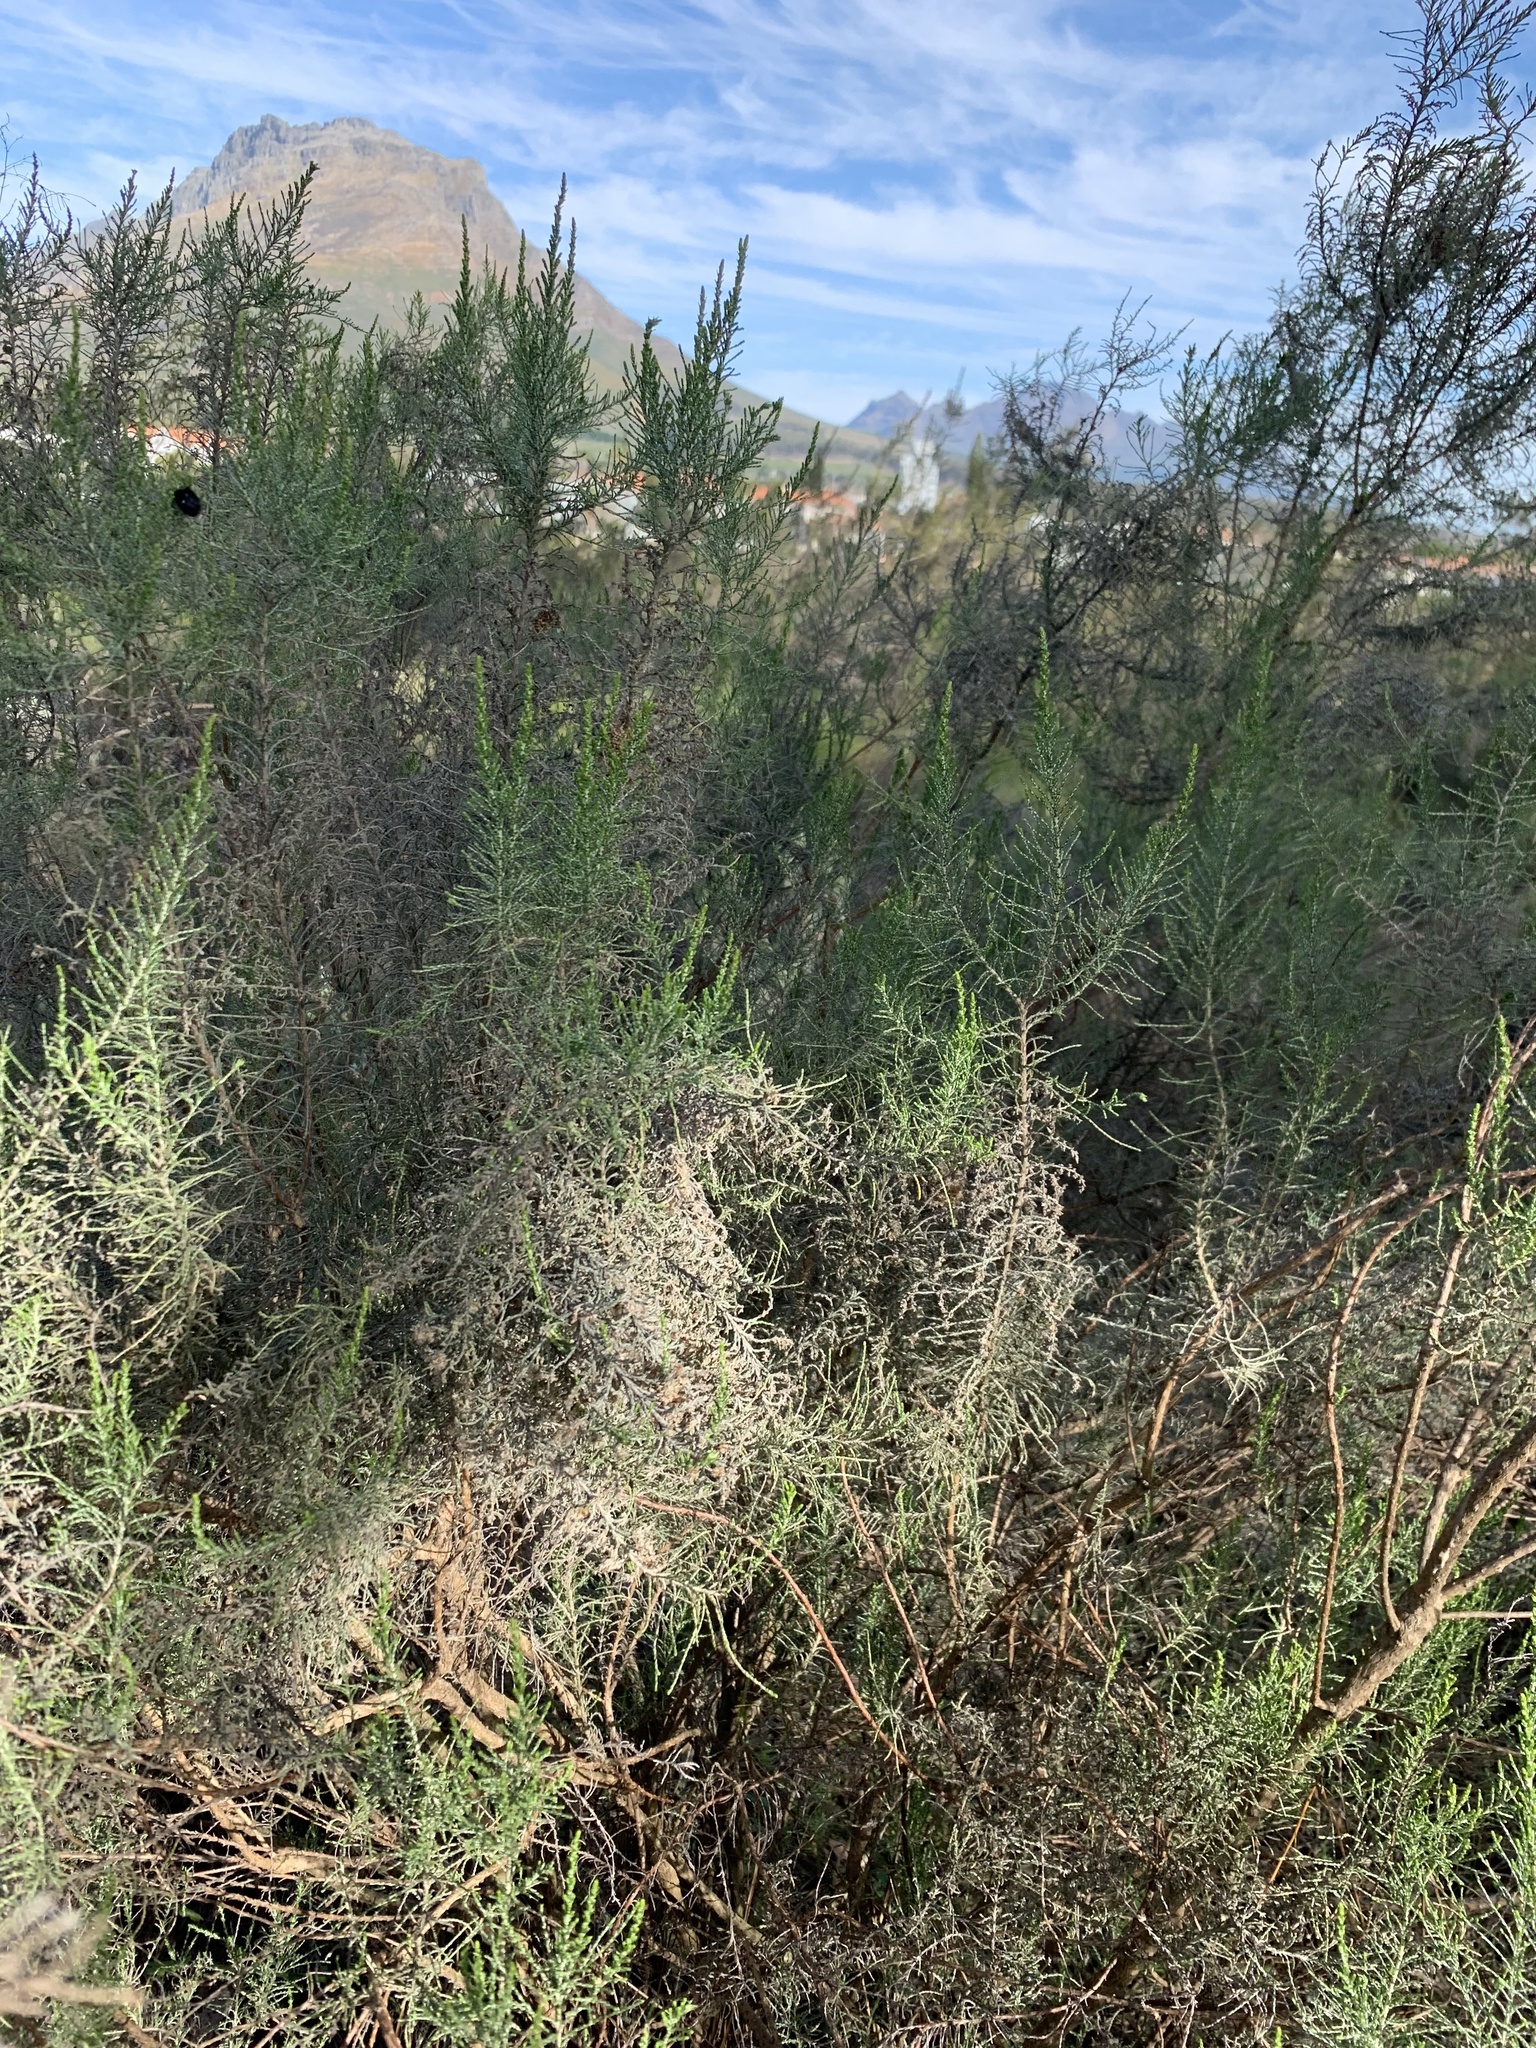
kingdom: Plantae
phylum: Tracheophyta
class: Magnoliopsida
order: Asterales
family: Asteraceae
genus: Dicerothamnus
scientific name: Dicerothamnus rhinocerotis
